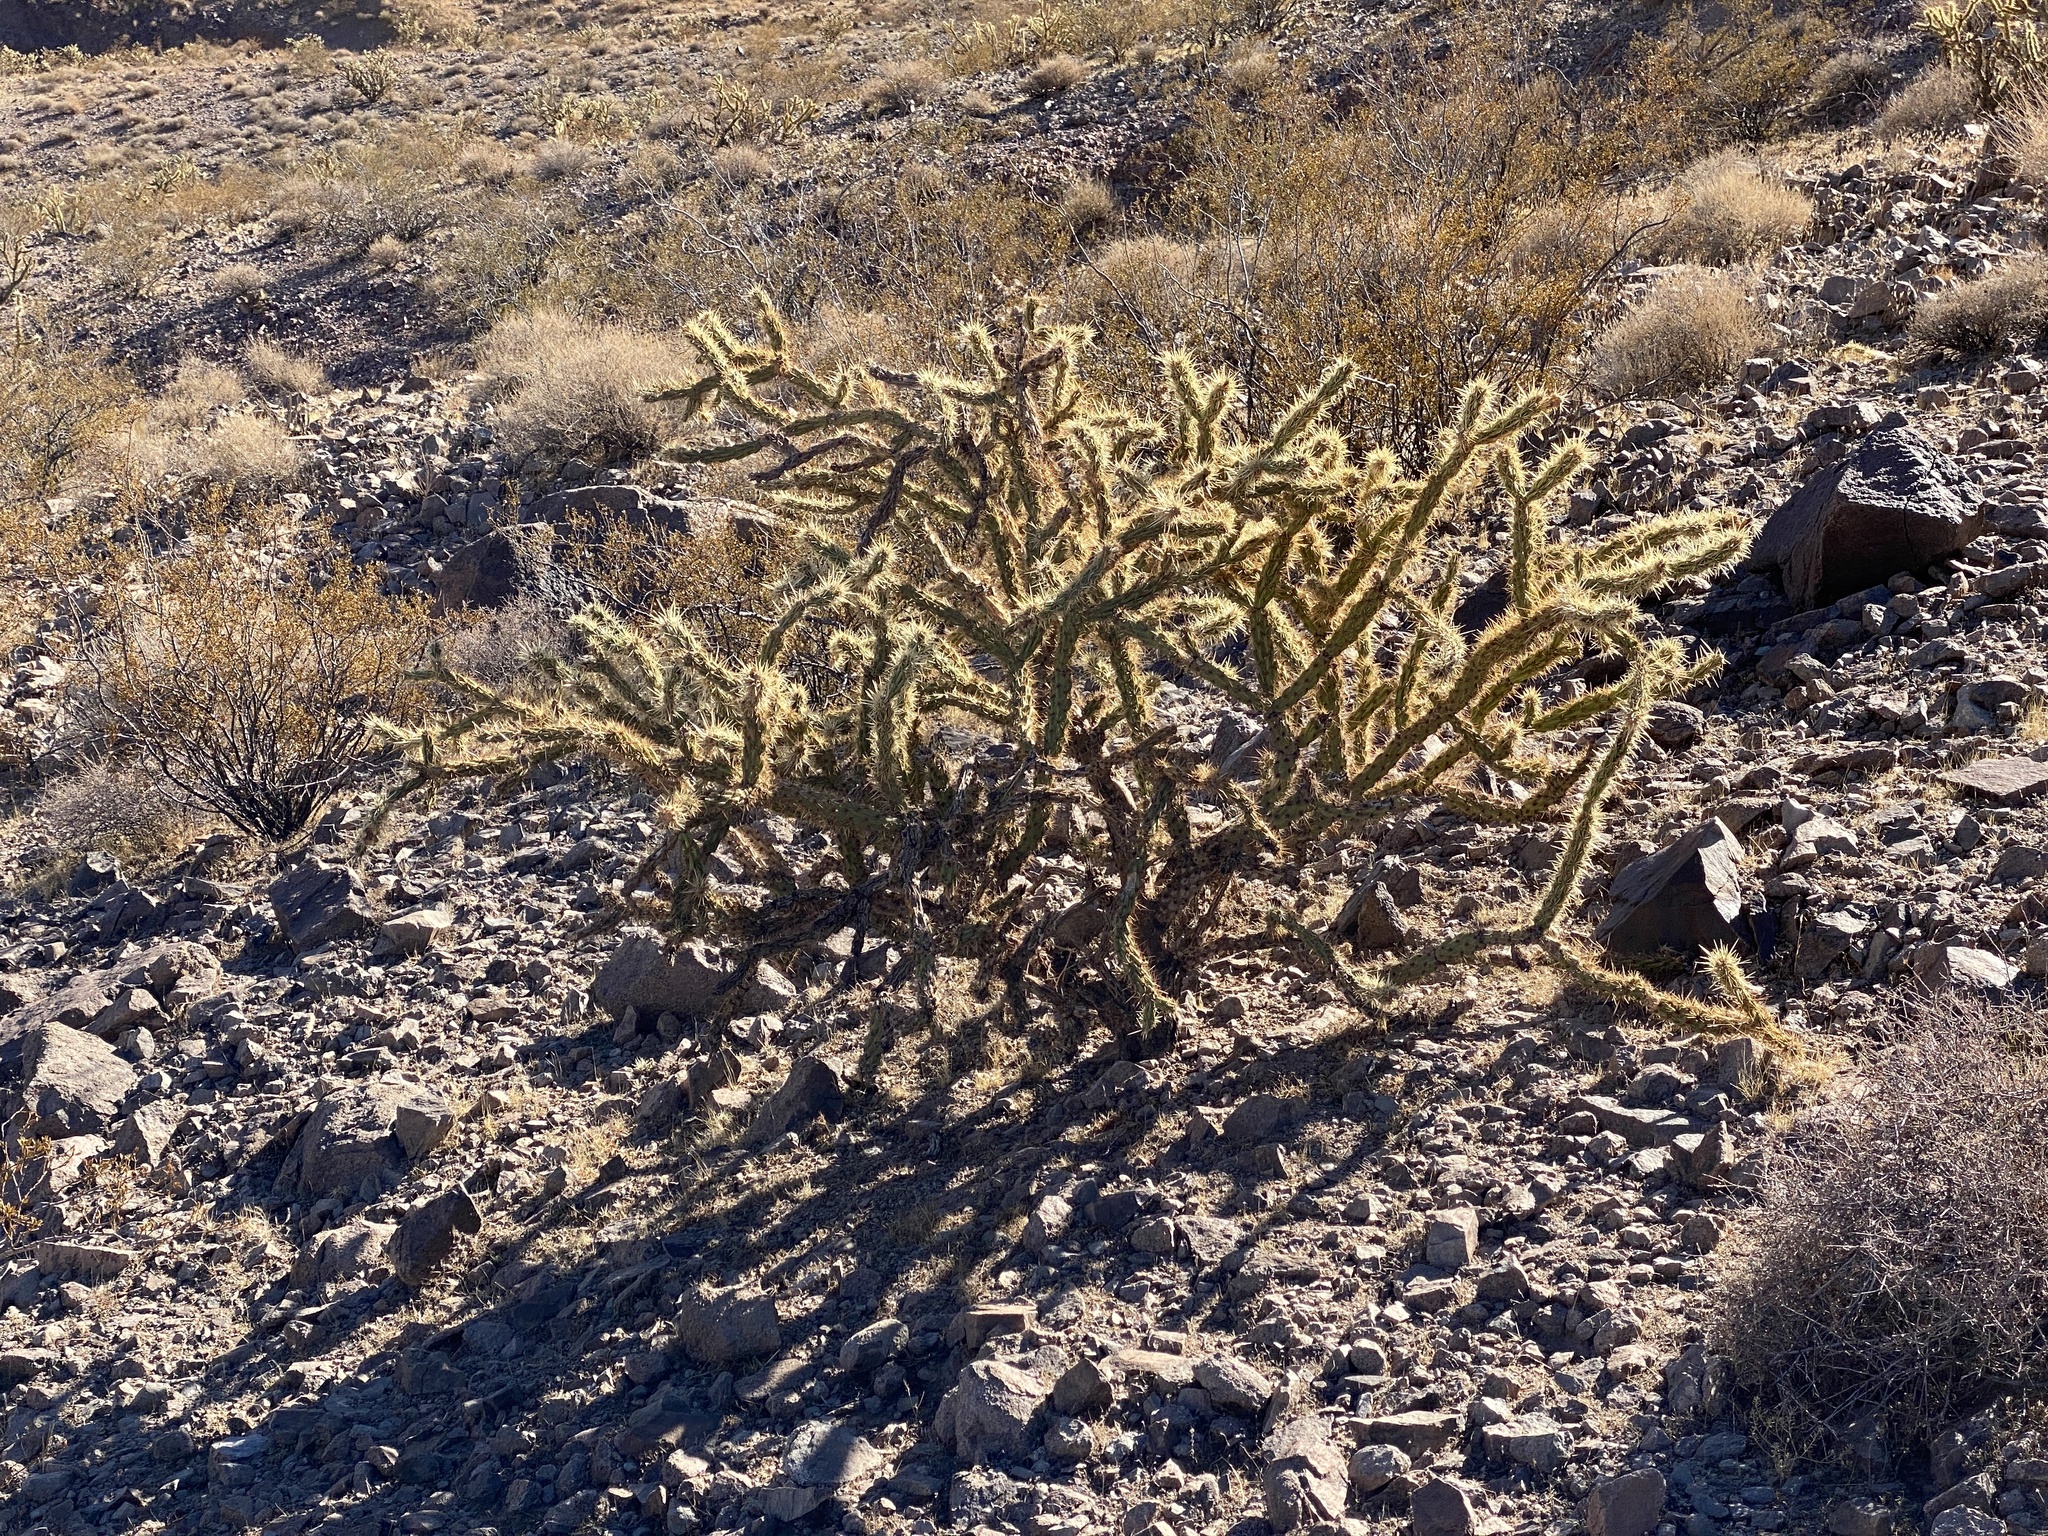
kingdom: Plantae
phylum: Tracheophyta
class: Magnoliopsida
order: Caryophyllales
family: Cactaceae
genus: Cylindropuntia
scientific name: Cylindropuntia acanthocarpa
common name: Buckhorn cholla
